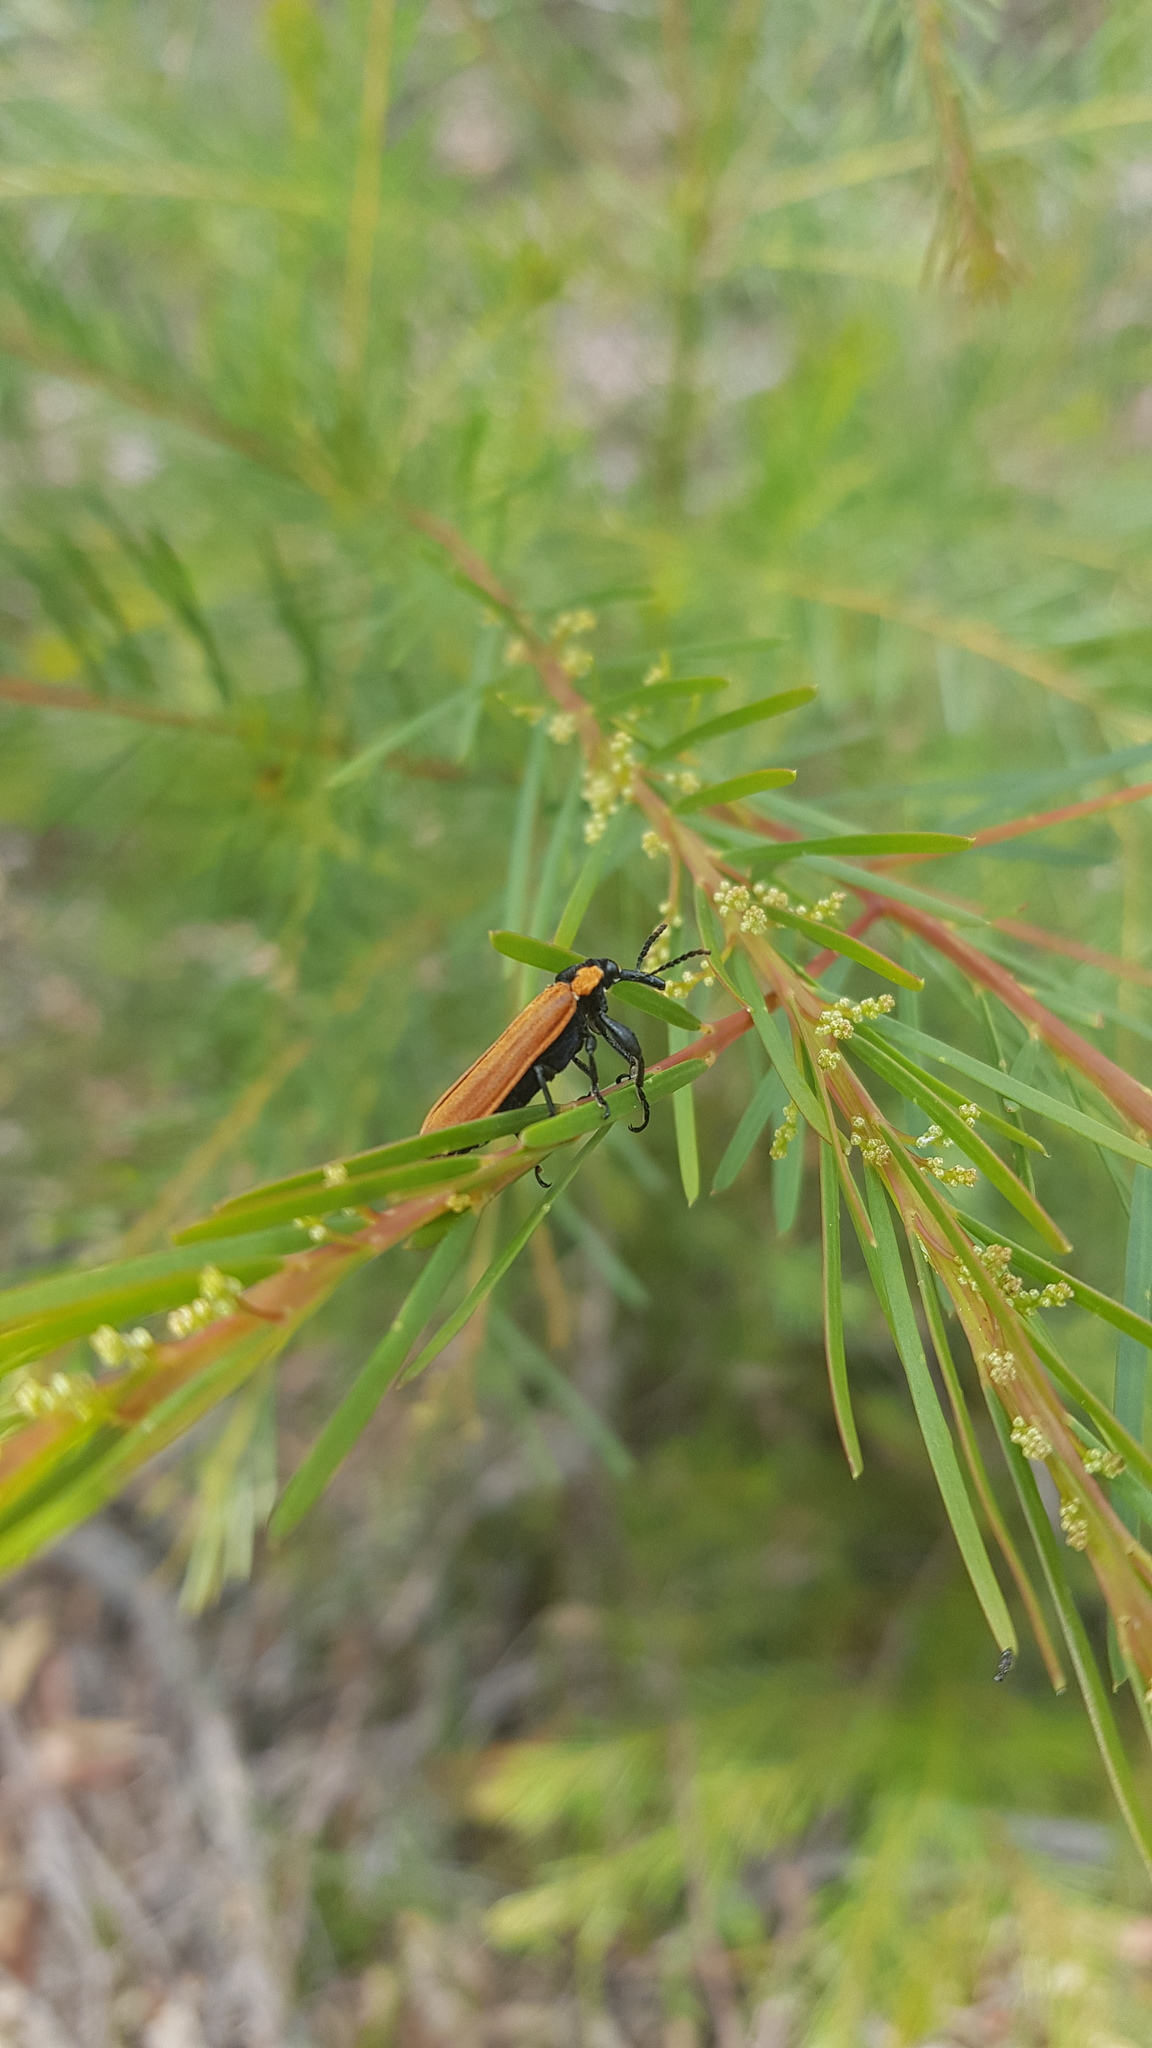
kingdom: Animalia
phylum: Arthropoda
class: Insecta
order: Coleoptera
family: Belidae
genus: Rhinotia
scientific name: Rhinotia haemoptera
